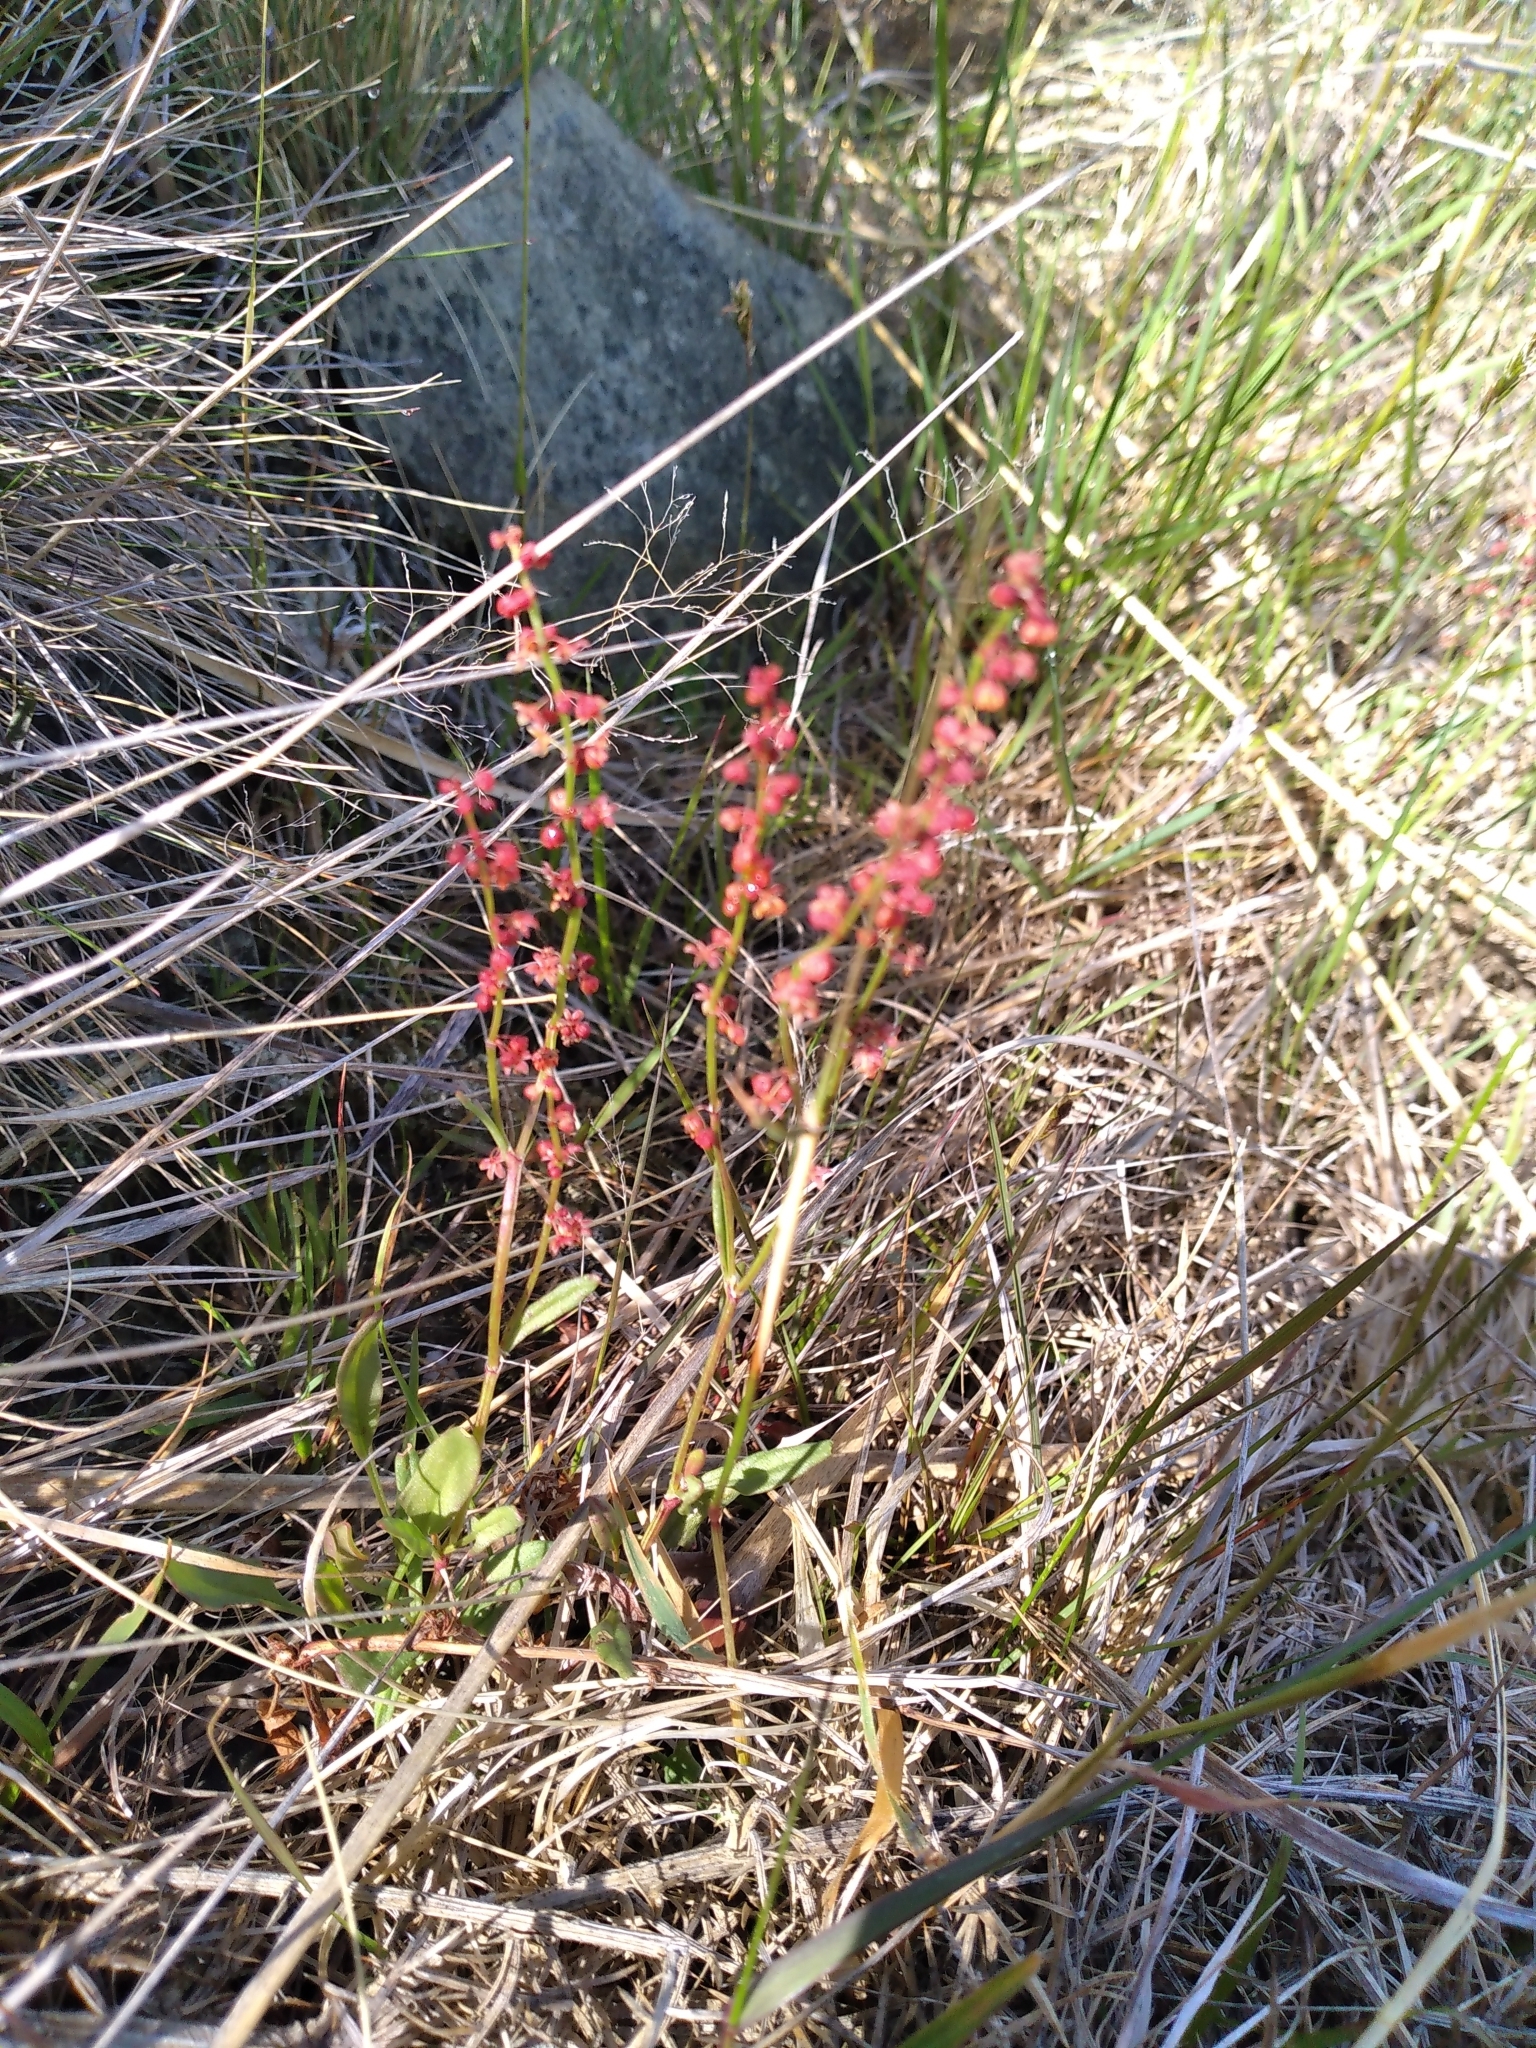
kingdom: Plantae
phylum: Tracheophyta
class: Magnoliopsida
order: Caryophyllales
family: Polygonaceae
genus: Rumex
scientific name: Rumex acetosella
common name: Common sheep sorrel
